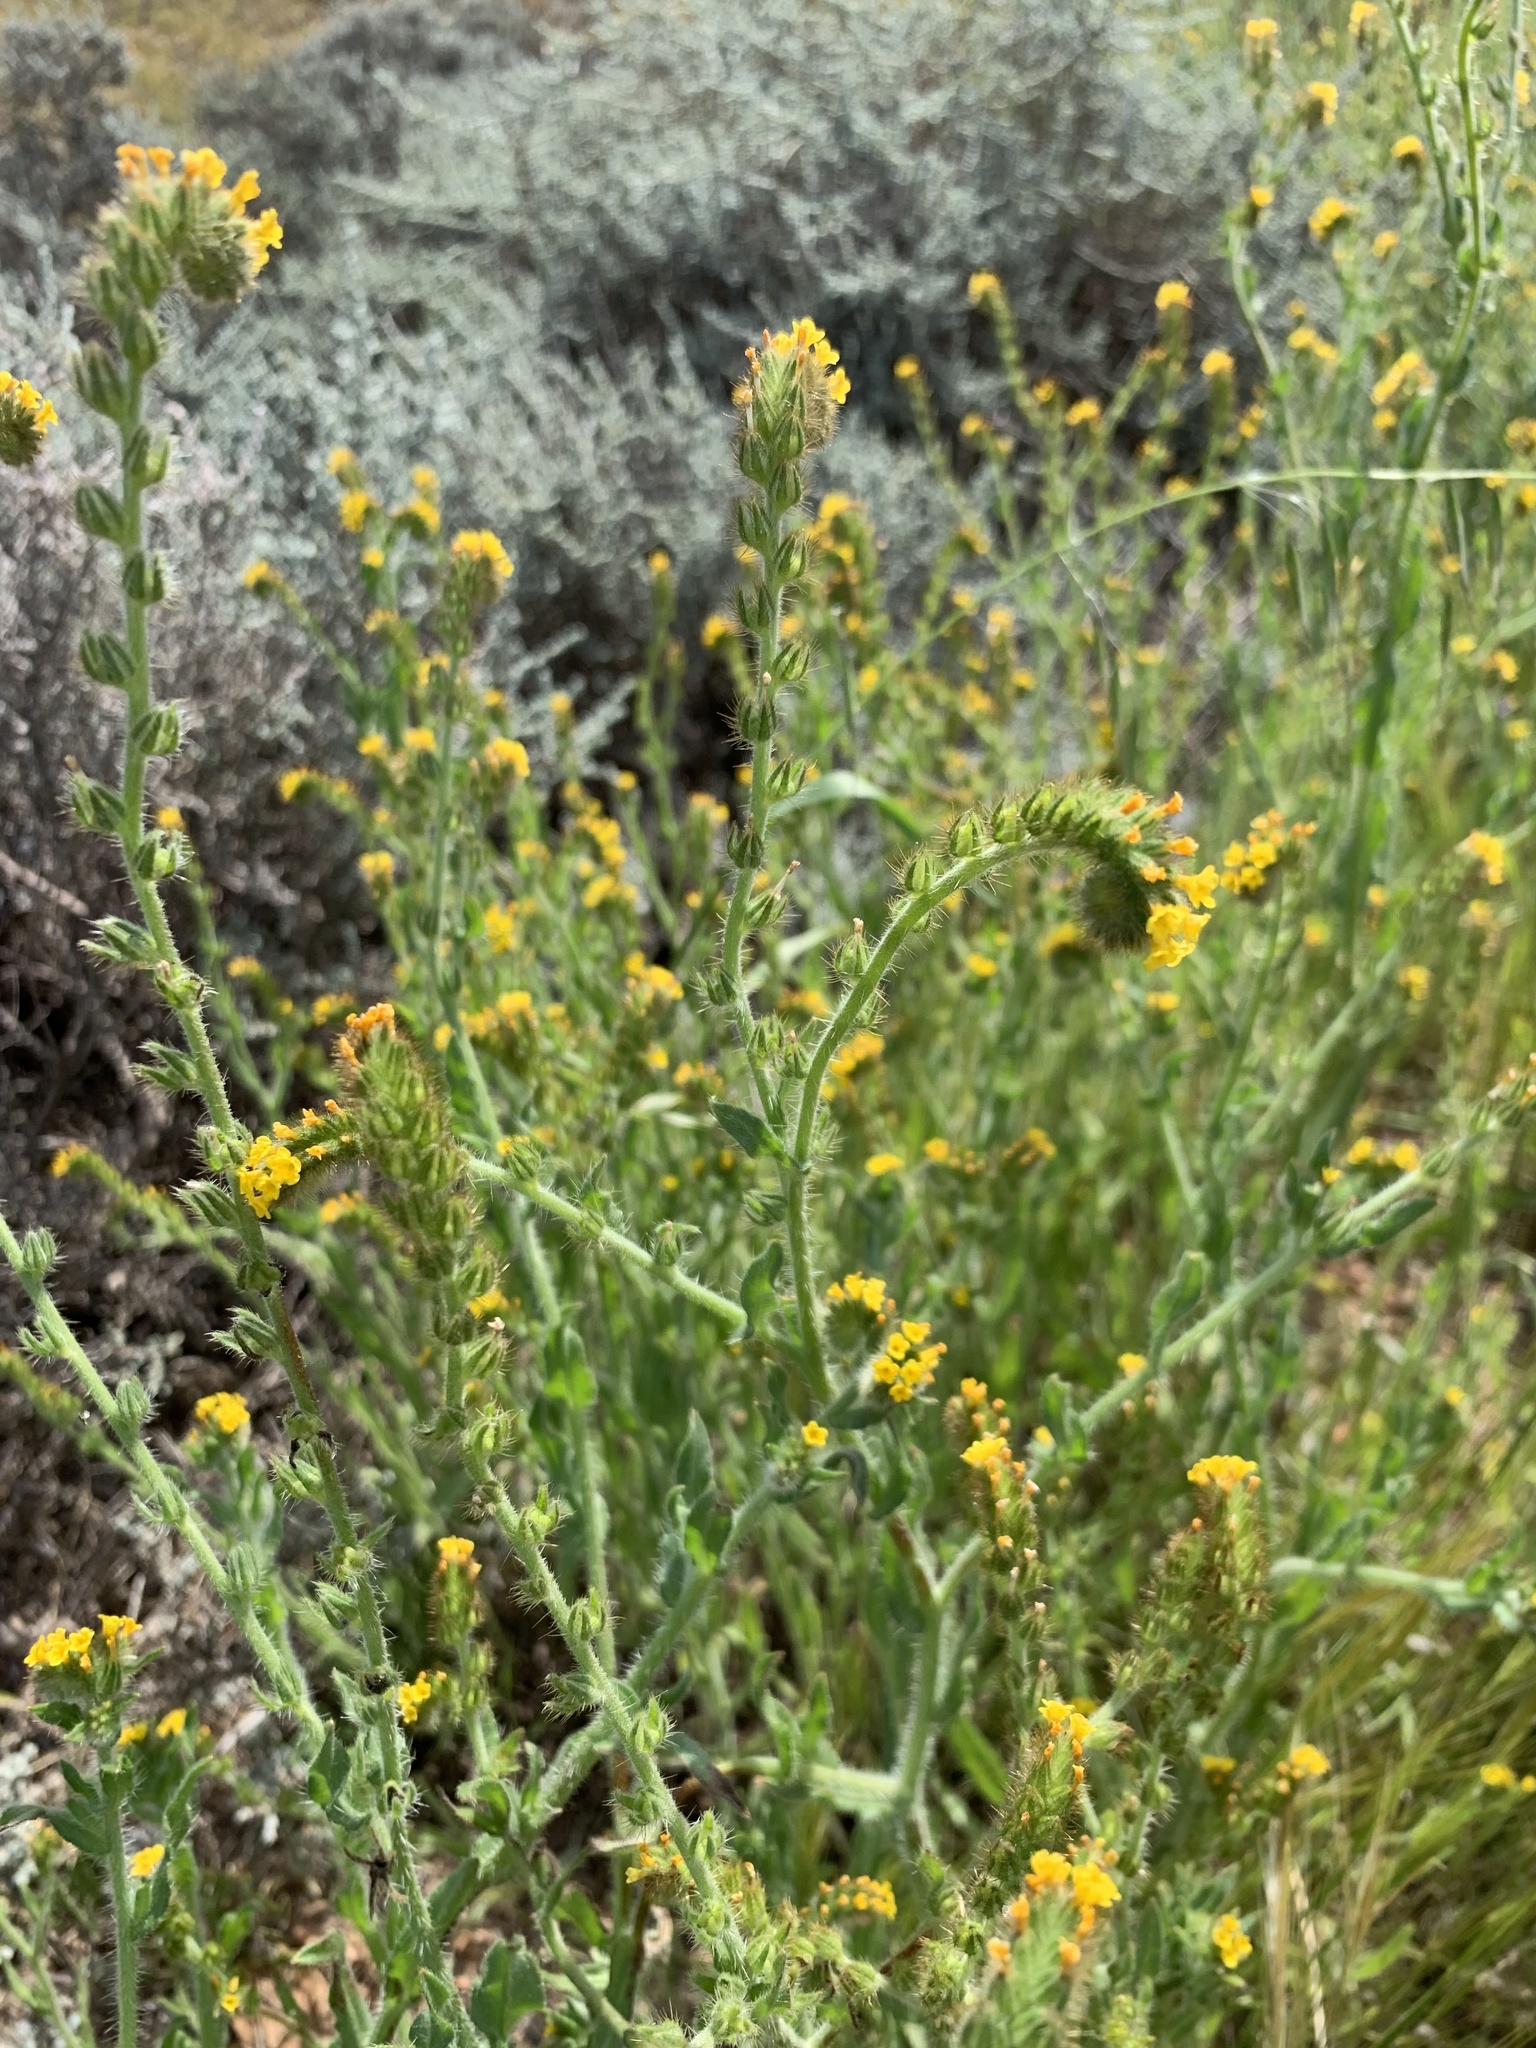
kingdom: Plantae
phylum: Tracheophyta
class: Magnoliopsida
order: Boraginales
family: Boraginaceae
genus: Amsinckia
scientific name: Amsinckia menziesii
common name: Menzies' fiddleneck
